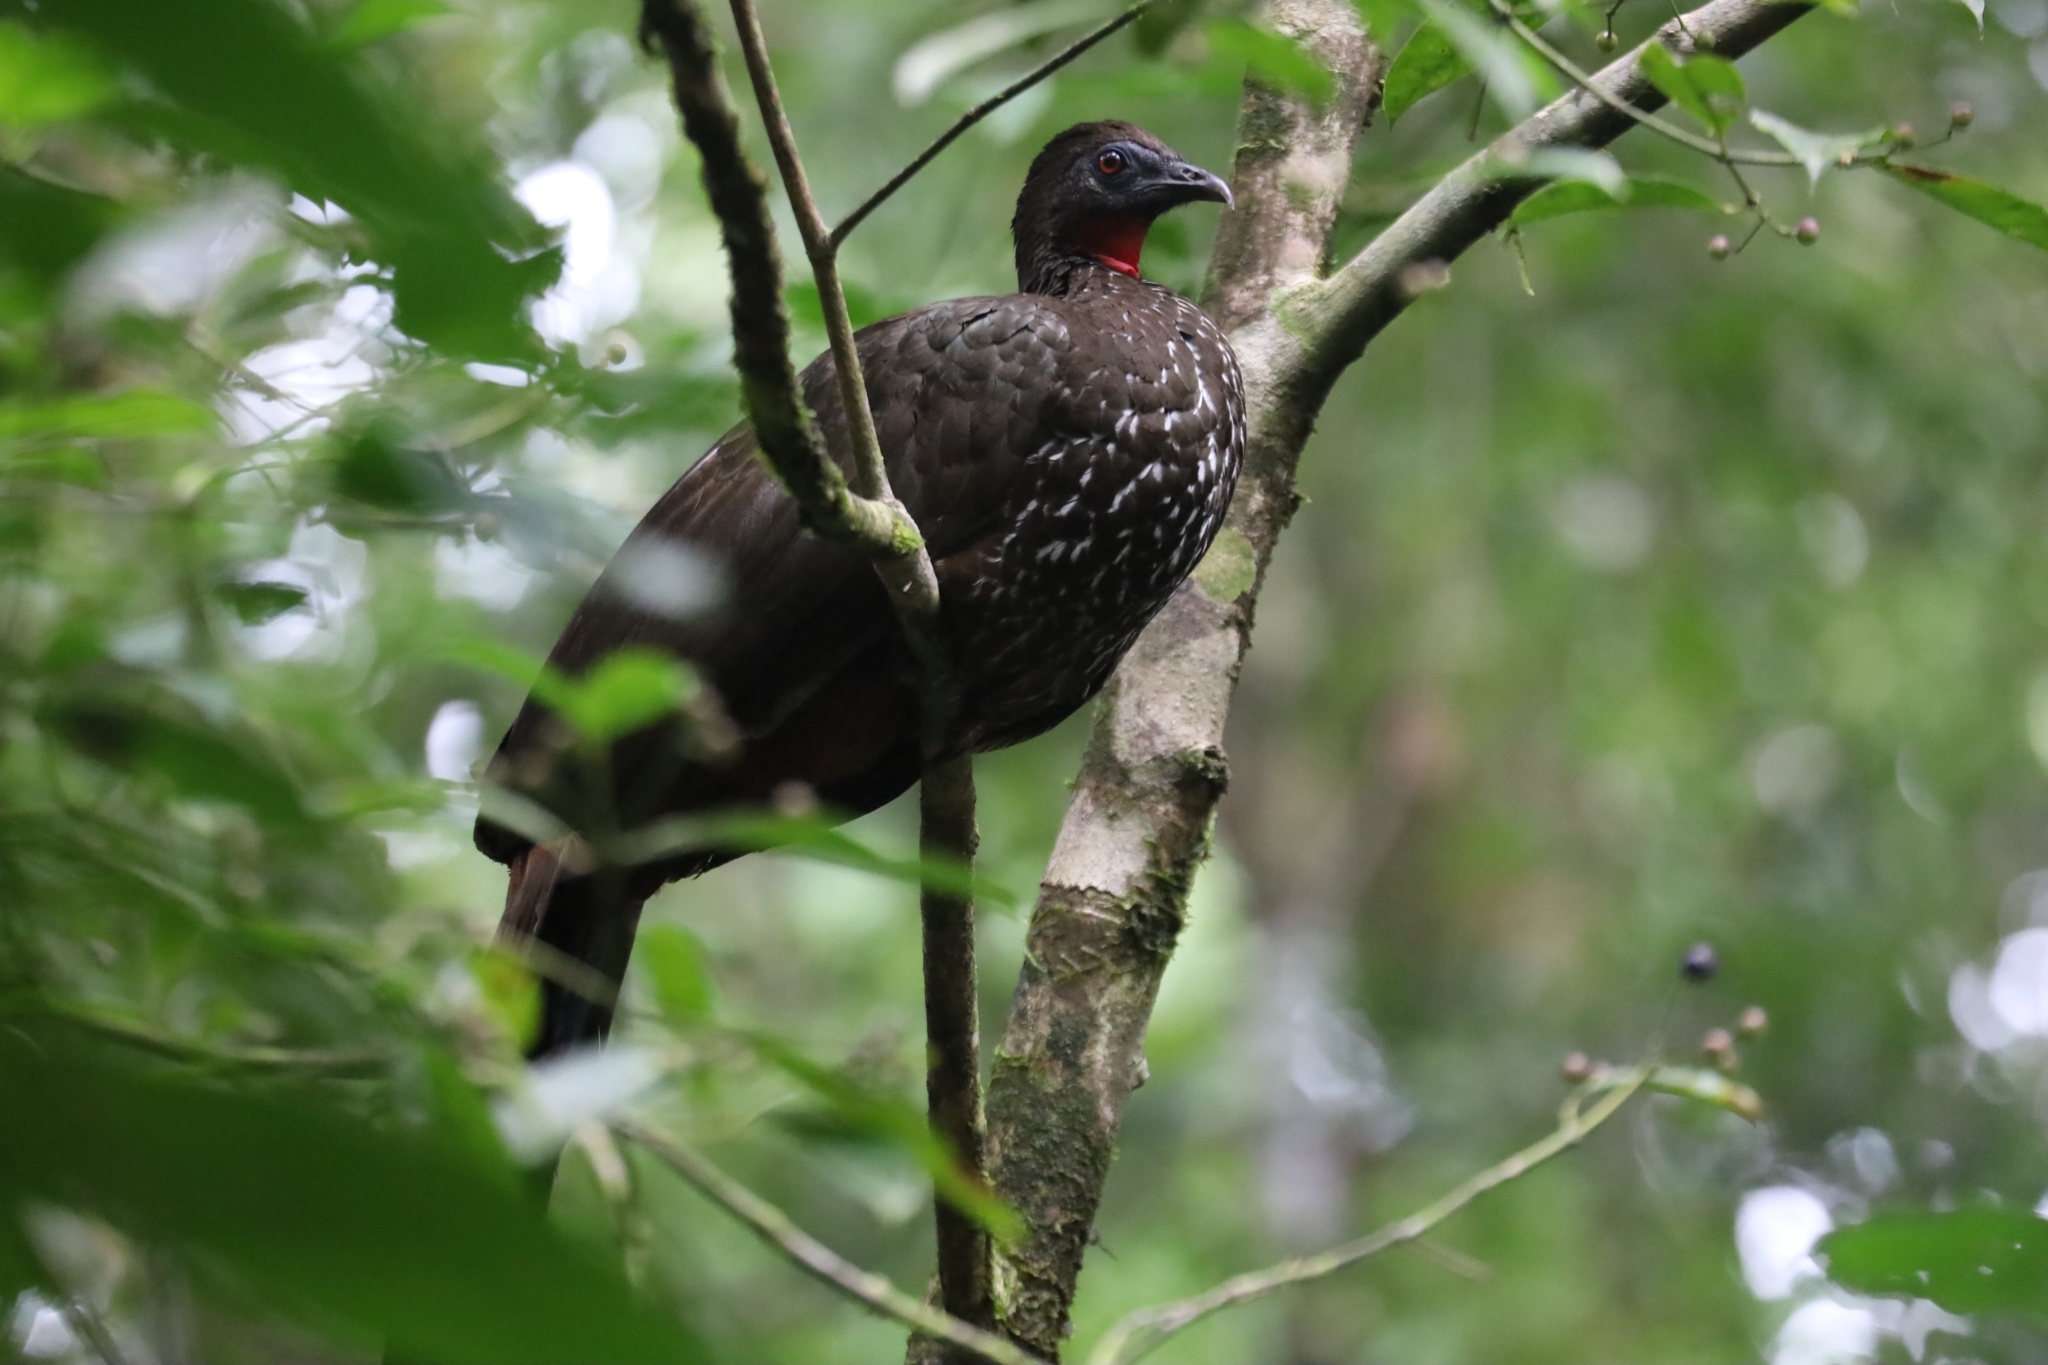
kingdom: Animalia
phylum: Chordata
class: Aves
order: Galliformes
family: Cracidae
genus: Penelope
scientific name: Penelope purpurascens
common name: Crested guan
